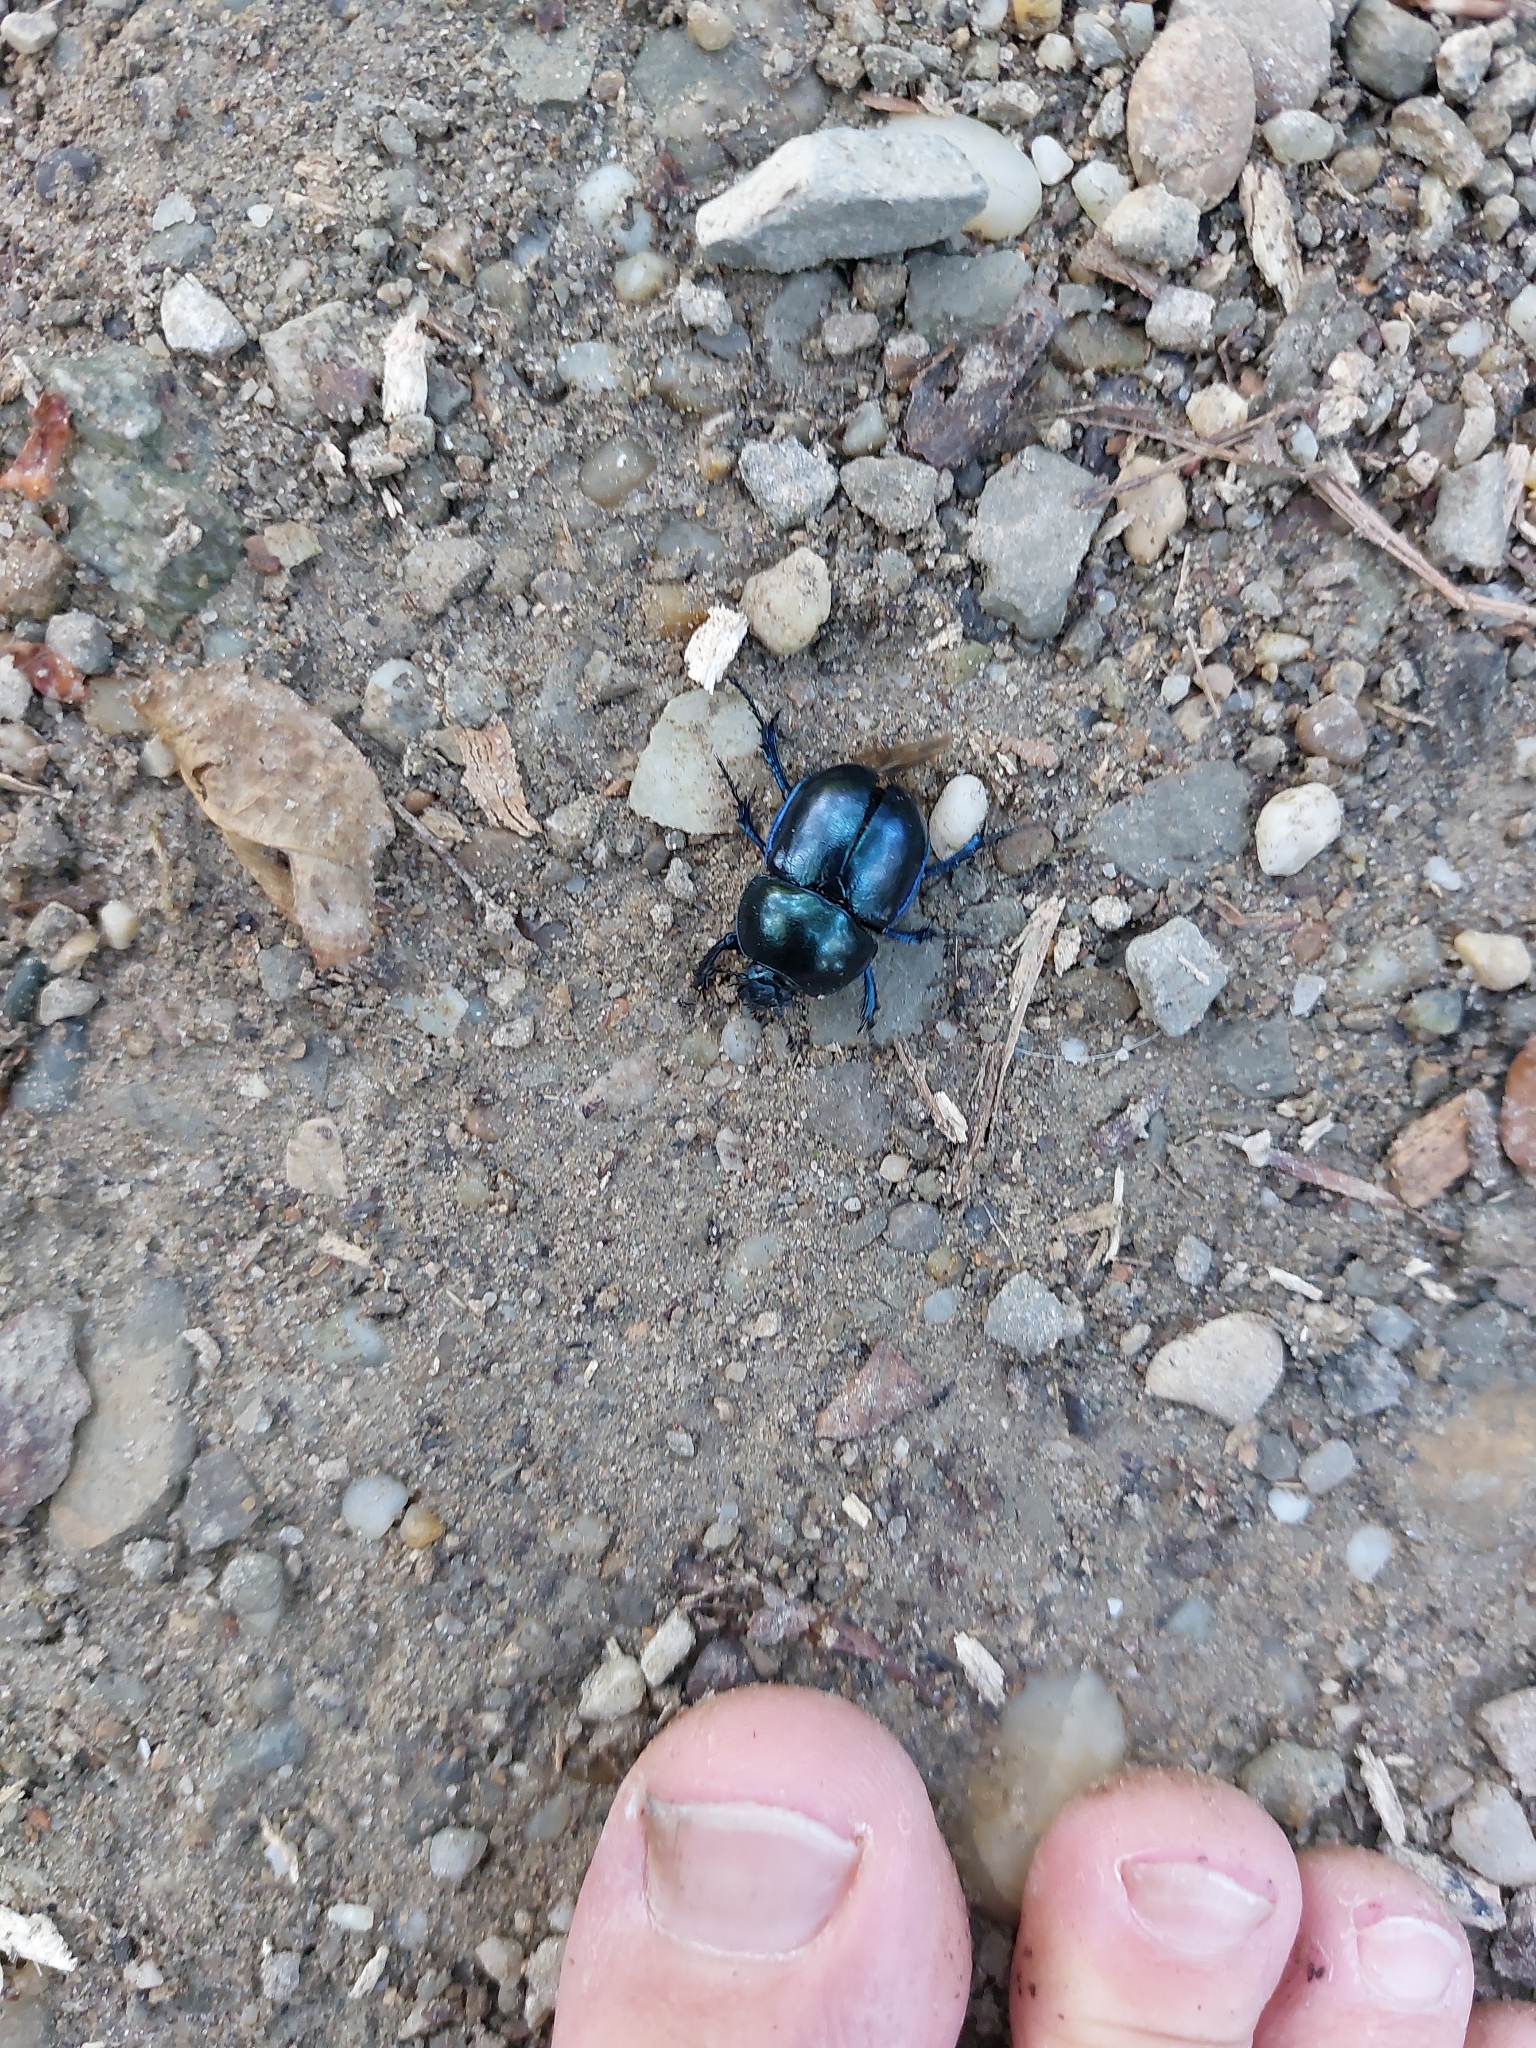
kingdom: Animalia
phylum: Arthropoda
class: Insecta
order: Coleoptera
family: Geotrupidae
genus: Trypocopris
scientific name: Trypocopris vernalis
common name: Spring dumbledor
